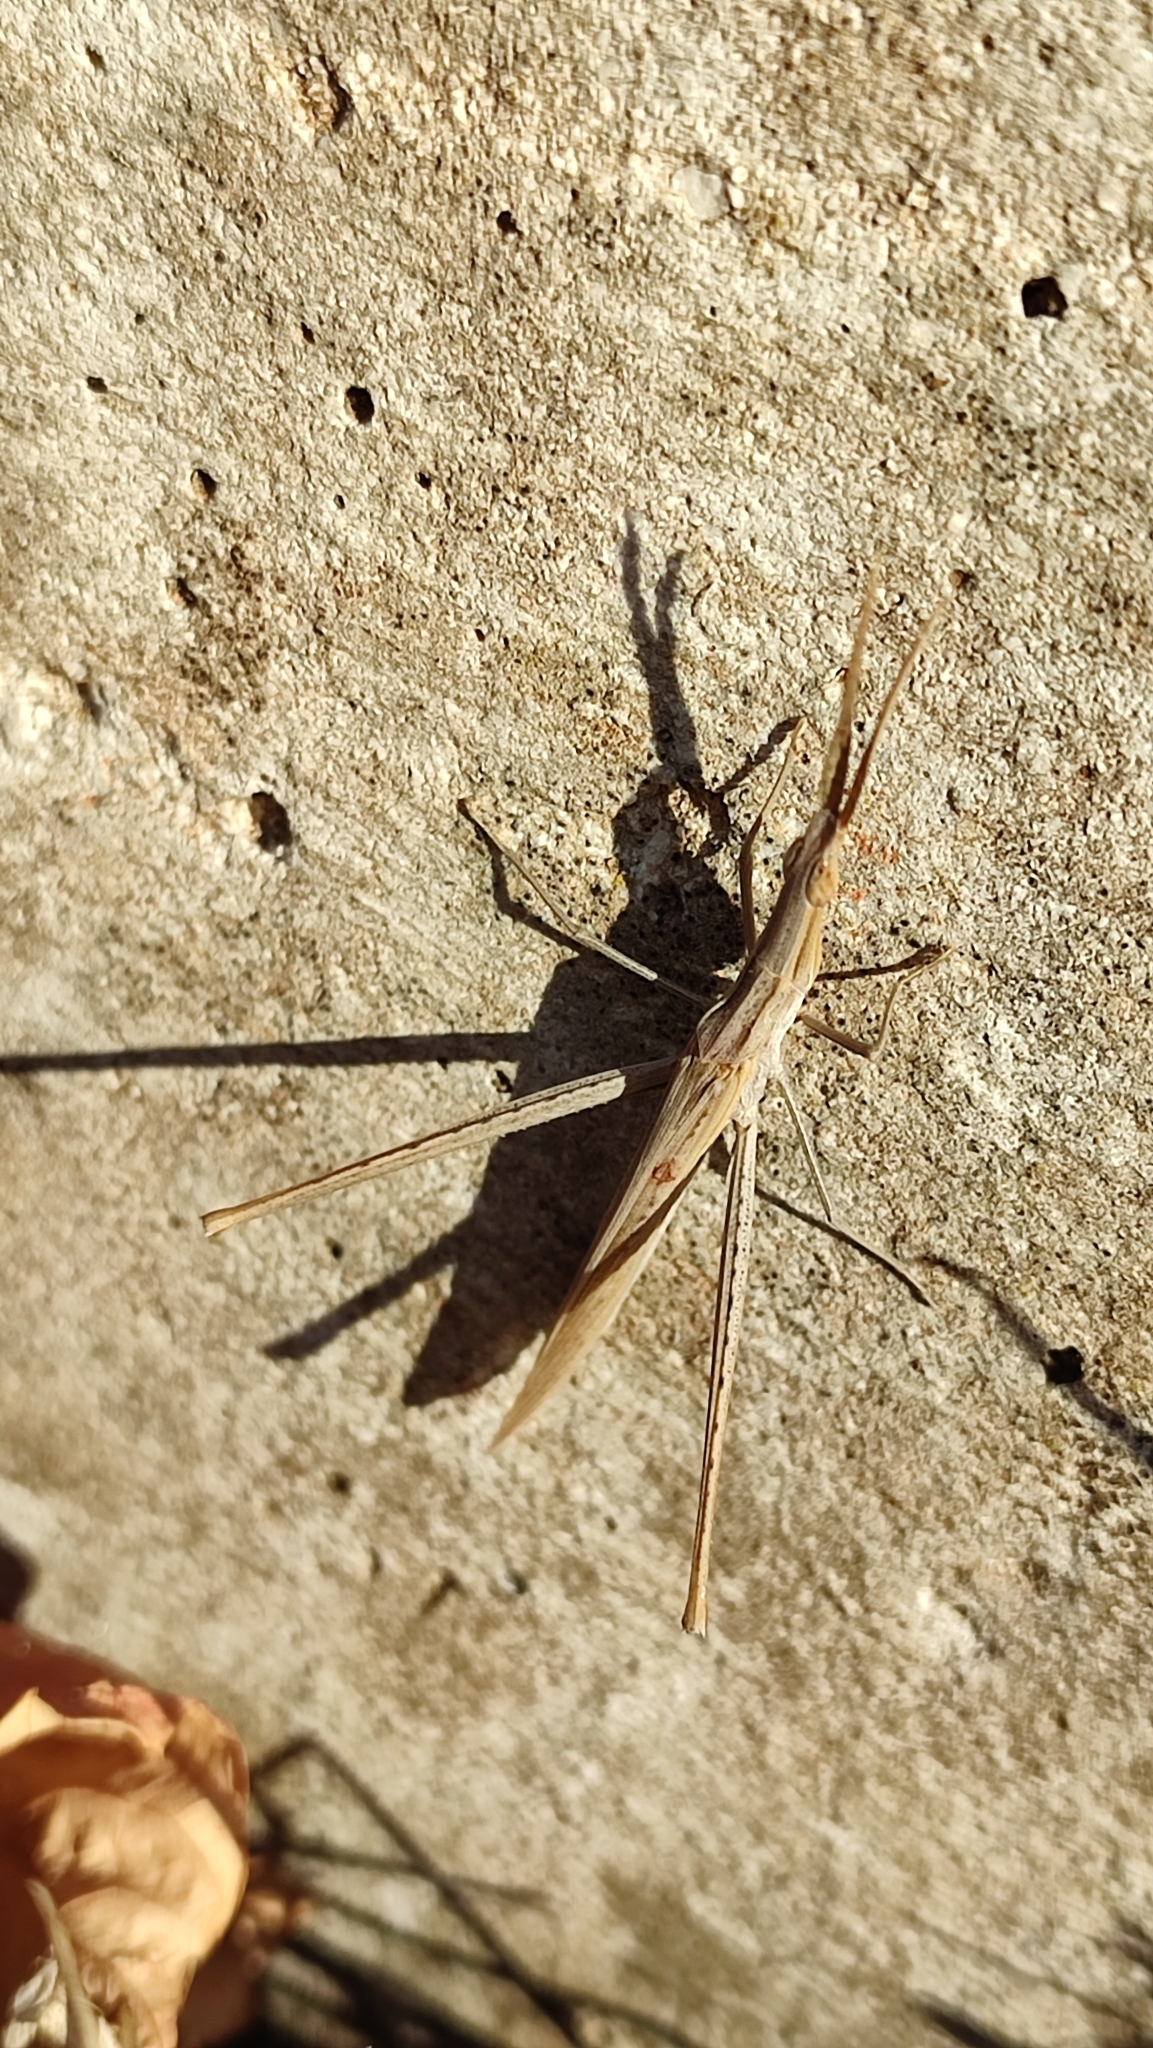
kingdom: Animalia
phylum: Arthropoda
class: Insecta
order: Orthoptera
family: Acrididae
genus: Acrida
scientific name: Acrida ungarica
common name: Common cone-headed grasshopper
